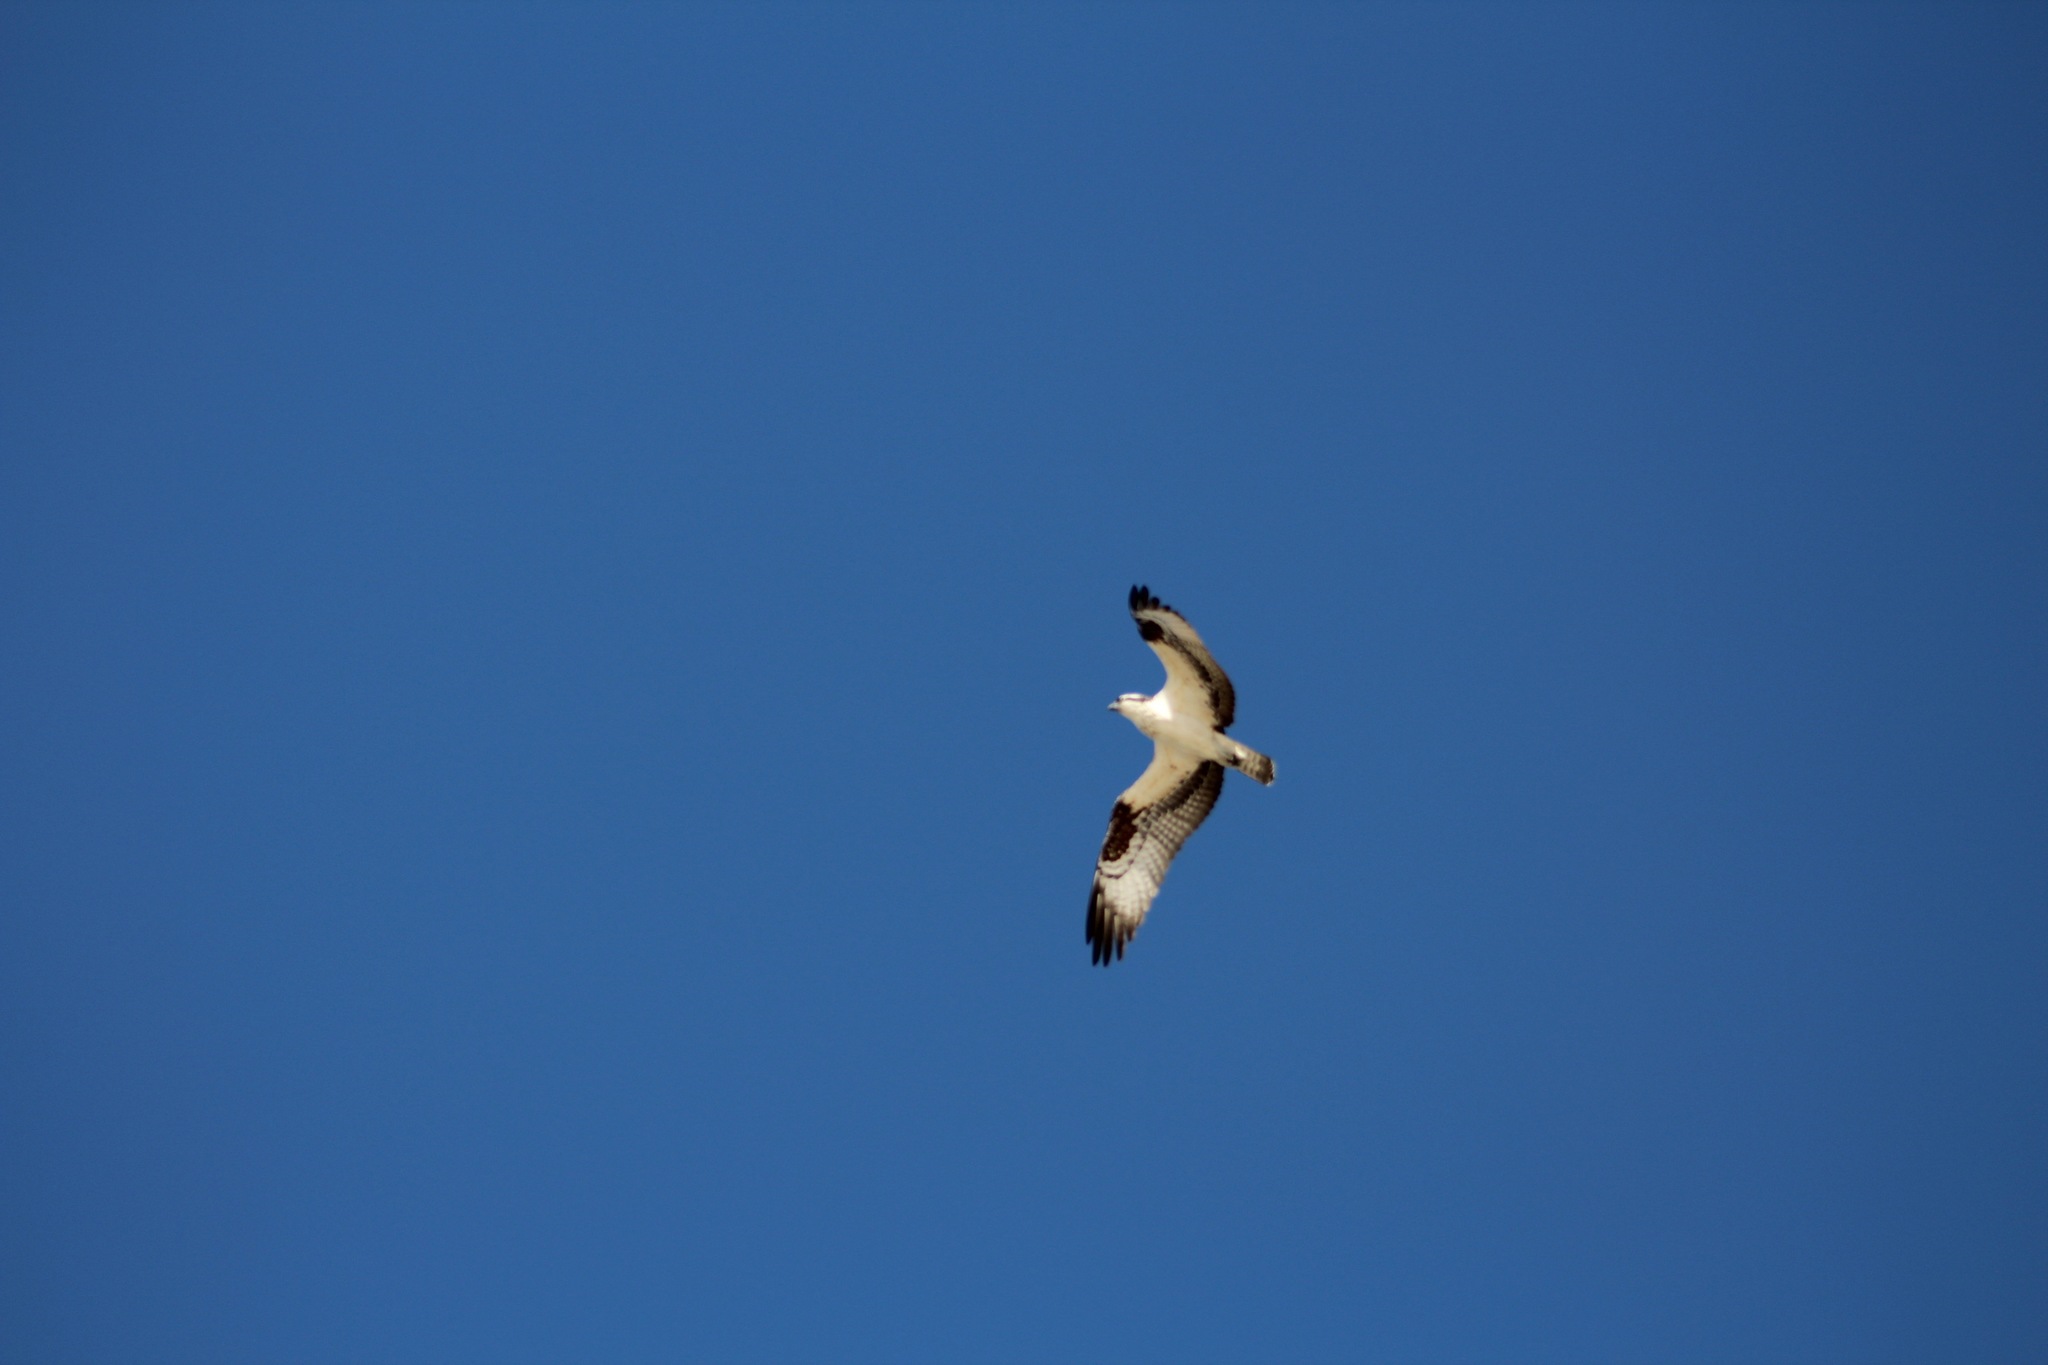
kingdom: Animalia
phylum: Chordata
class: Aves
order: Accipitriformes
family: Pandionidae
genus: Pandion
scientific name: Pandion haliaetus
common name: Osprey
